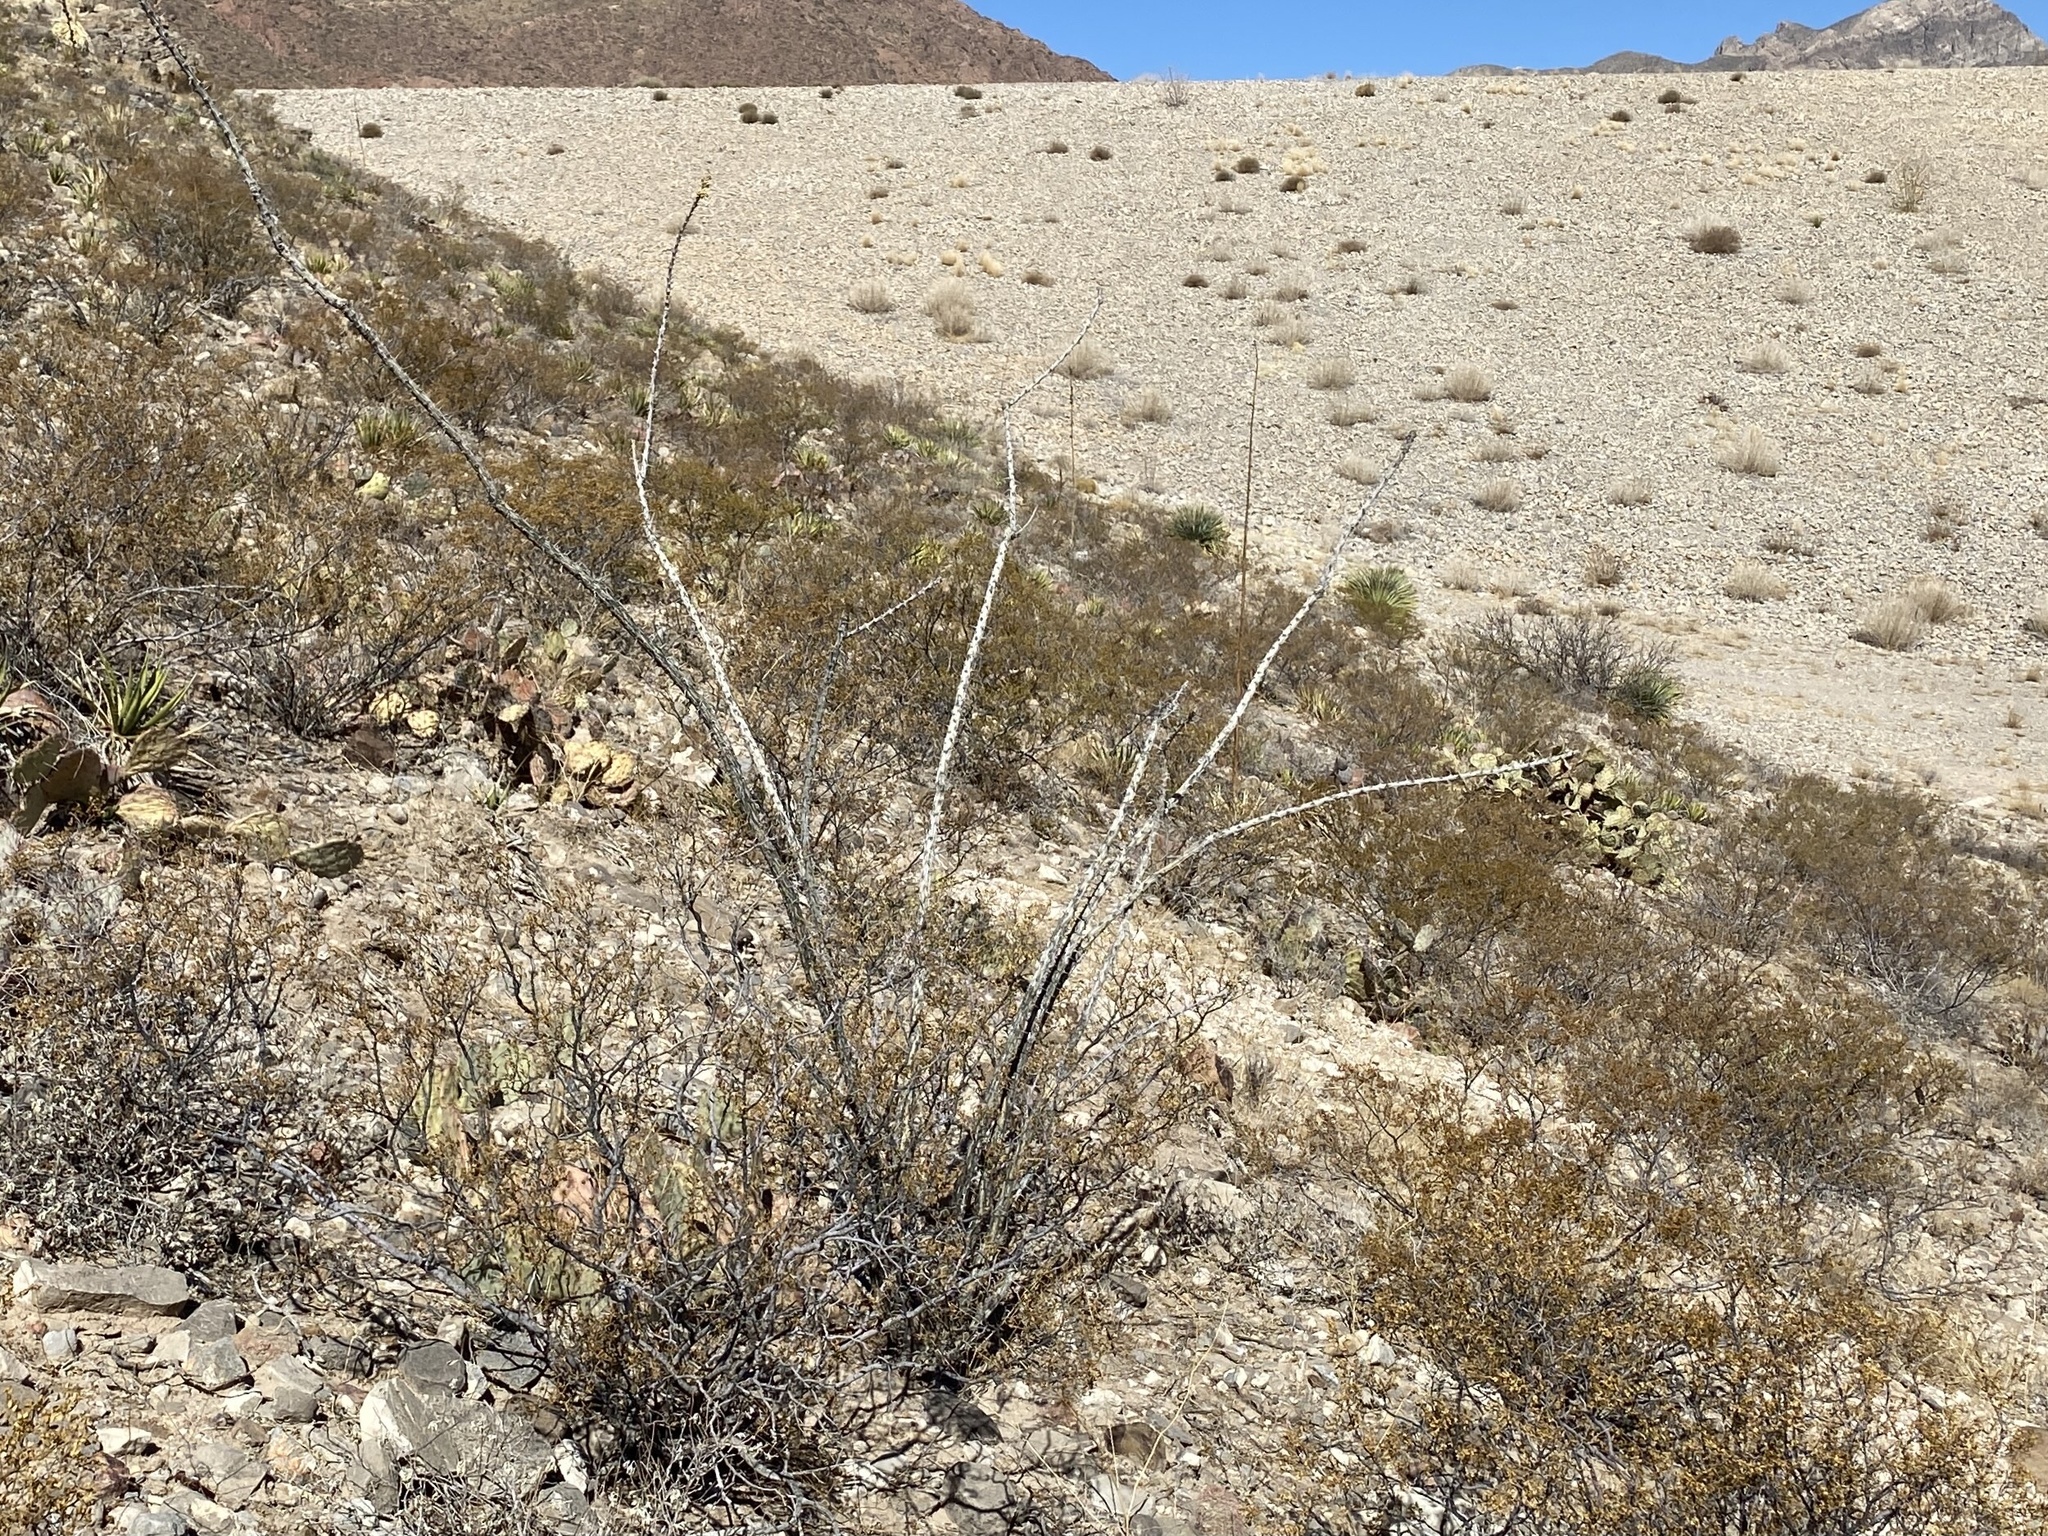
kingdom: Plantae
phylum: Tracheophyta
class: Magnoliopsida
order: Ericales
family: Fouquieriaceae
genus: Fouquieria
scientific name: Fouquieria splendens
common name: Vine-cactus
